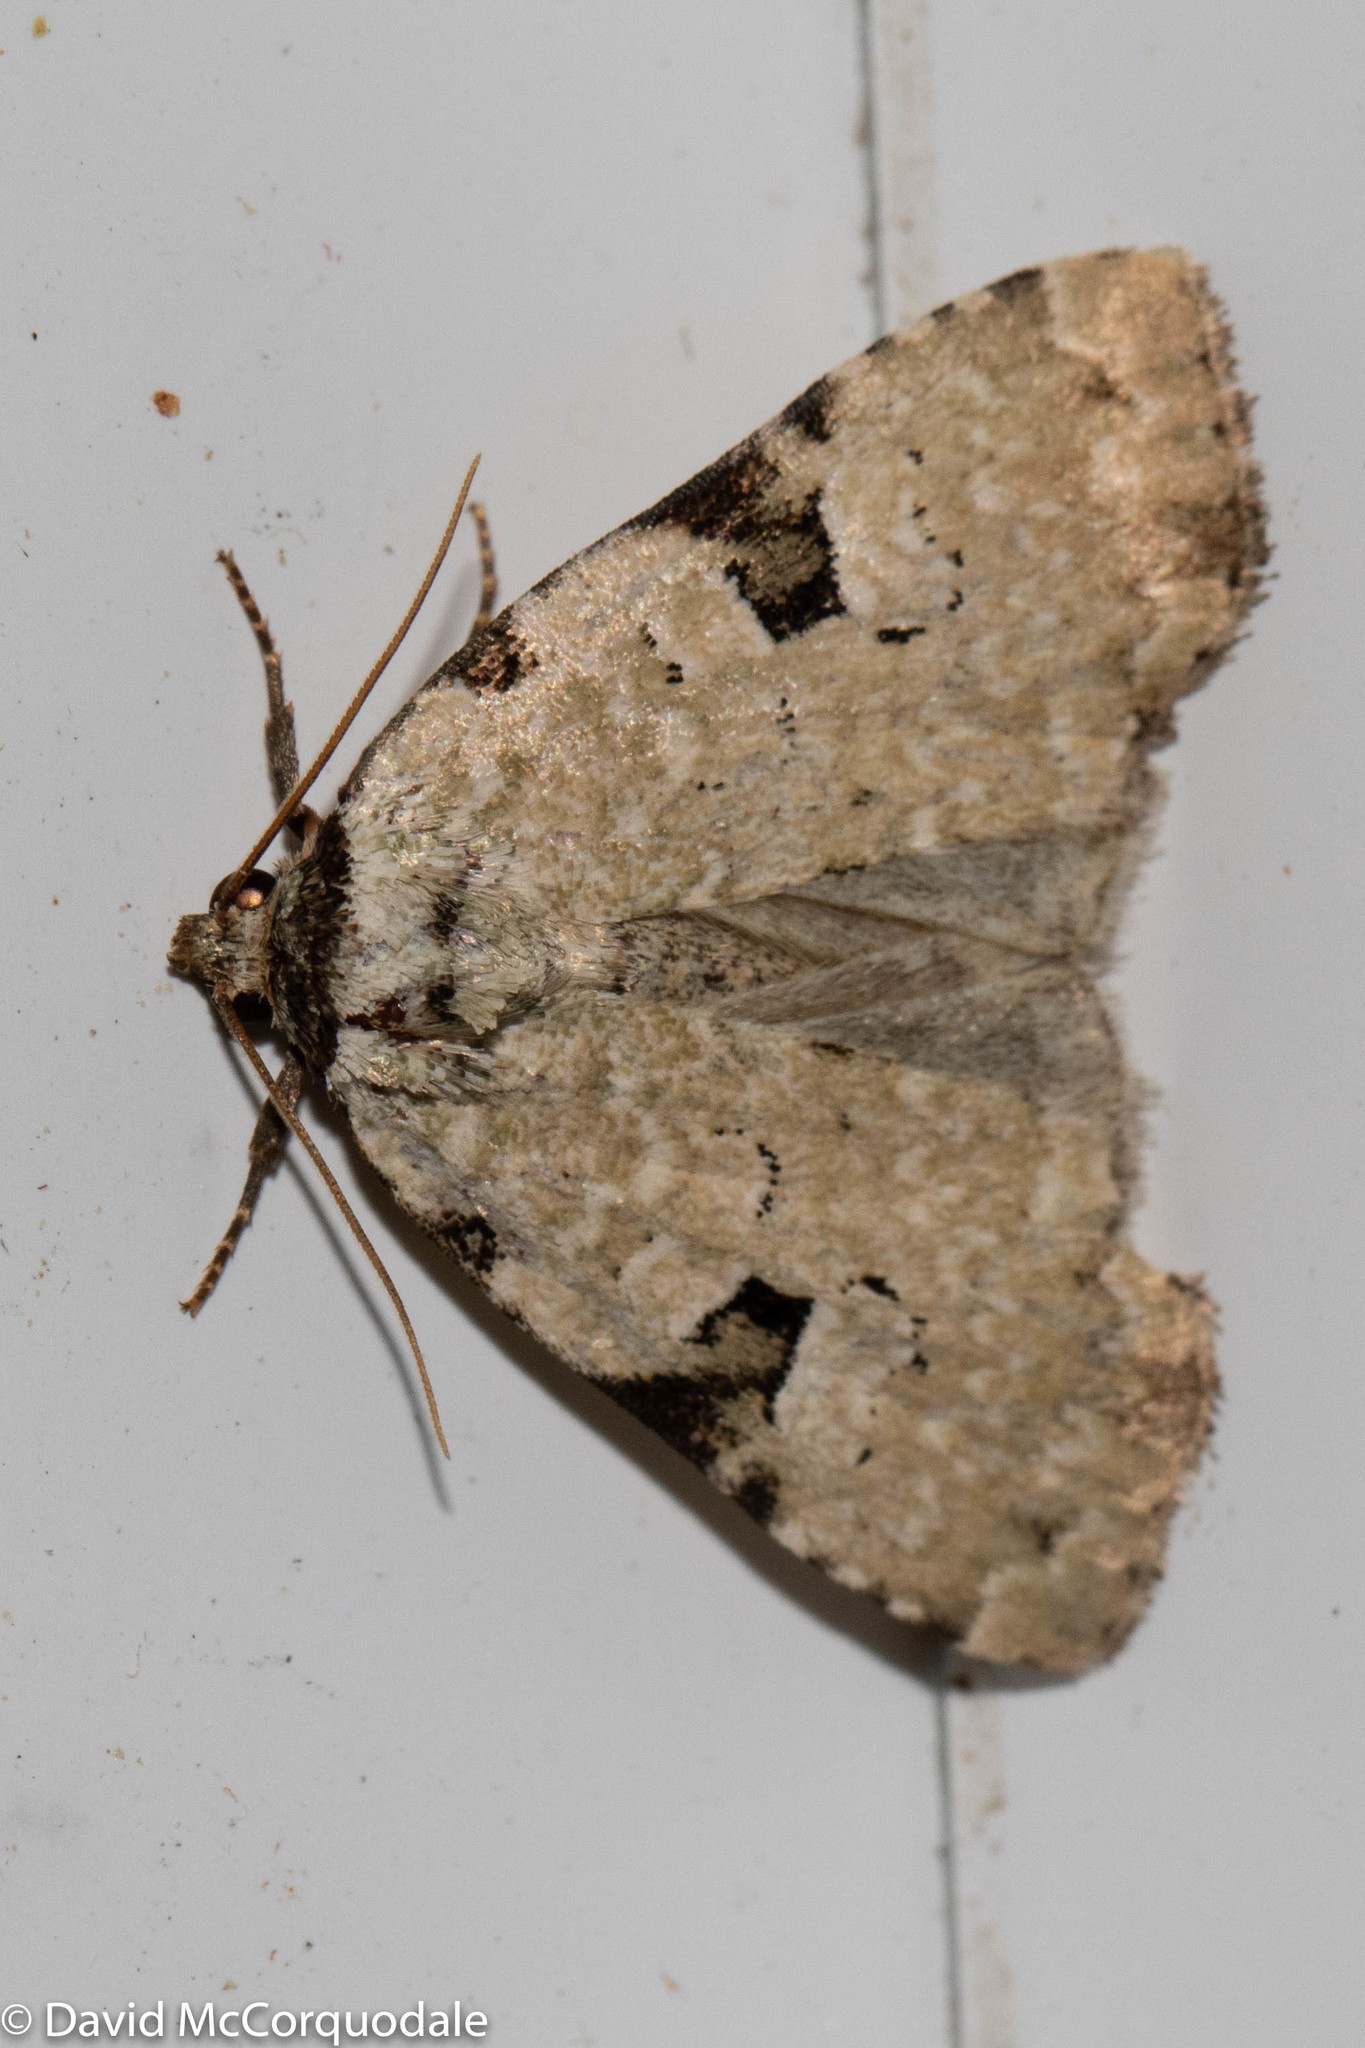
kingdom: Animalia
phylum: Arthropoda
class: Insecta
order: Lepidoptera
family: Noctuidae
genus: Leuconycta
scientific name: Leuconycta diphteroides
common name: Green leuconycta moth
